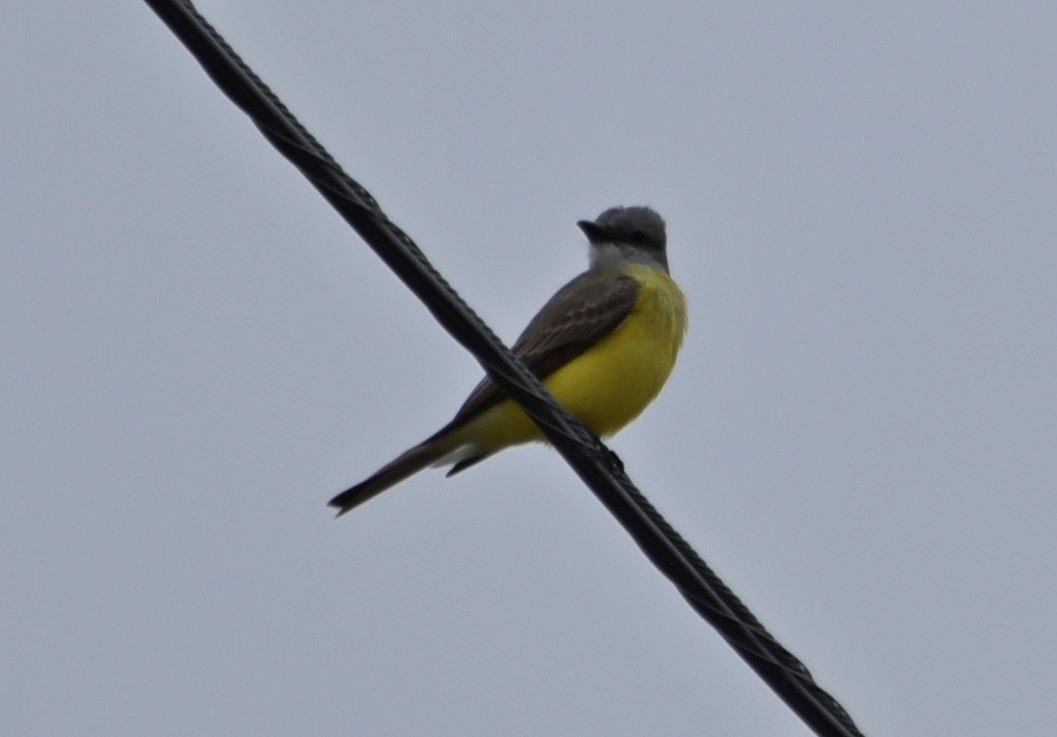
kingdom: Animalia
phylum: Chordata
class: Aves
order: Passeriformes
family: Tyrannidae
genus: Tyrannus
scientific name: Tyrannus verticalis
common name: Western kingbird
